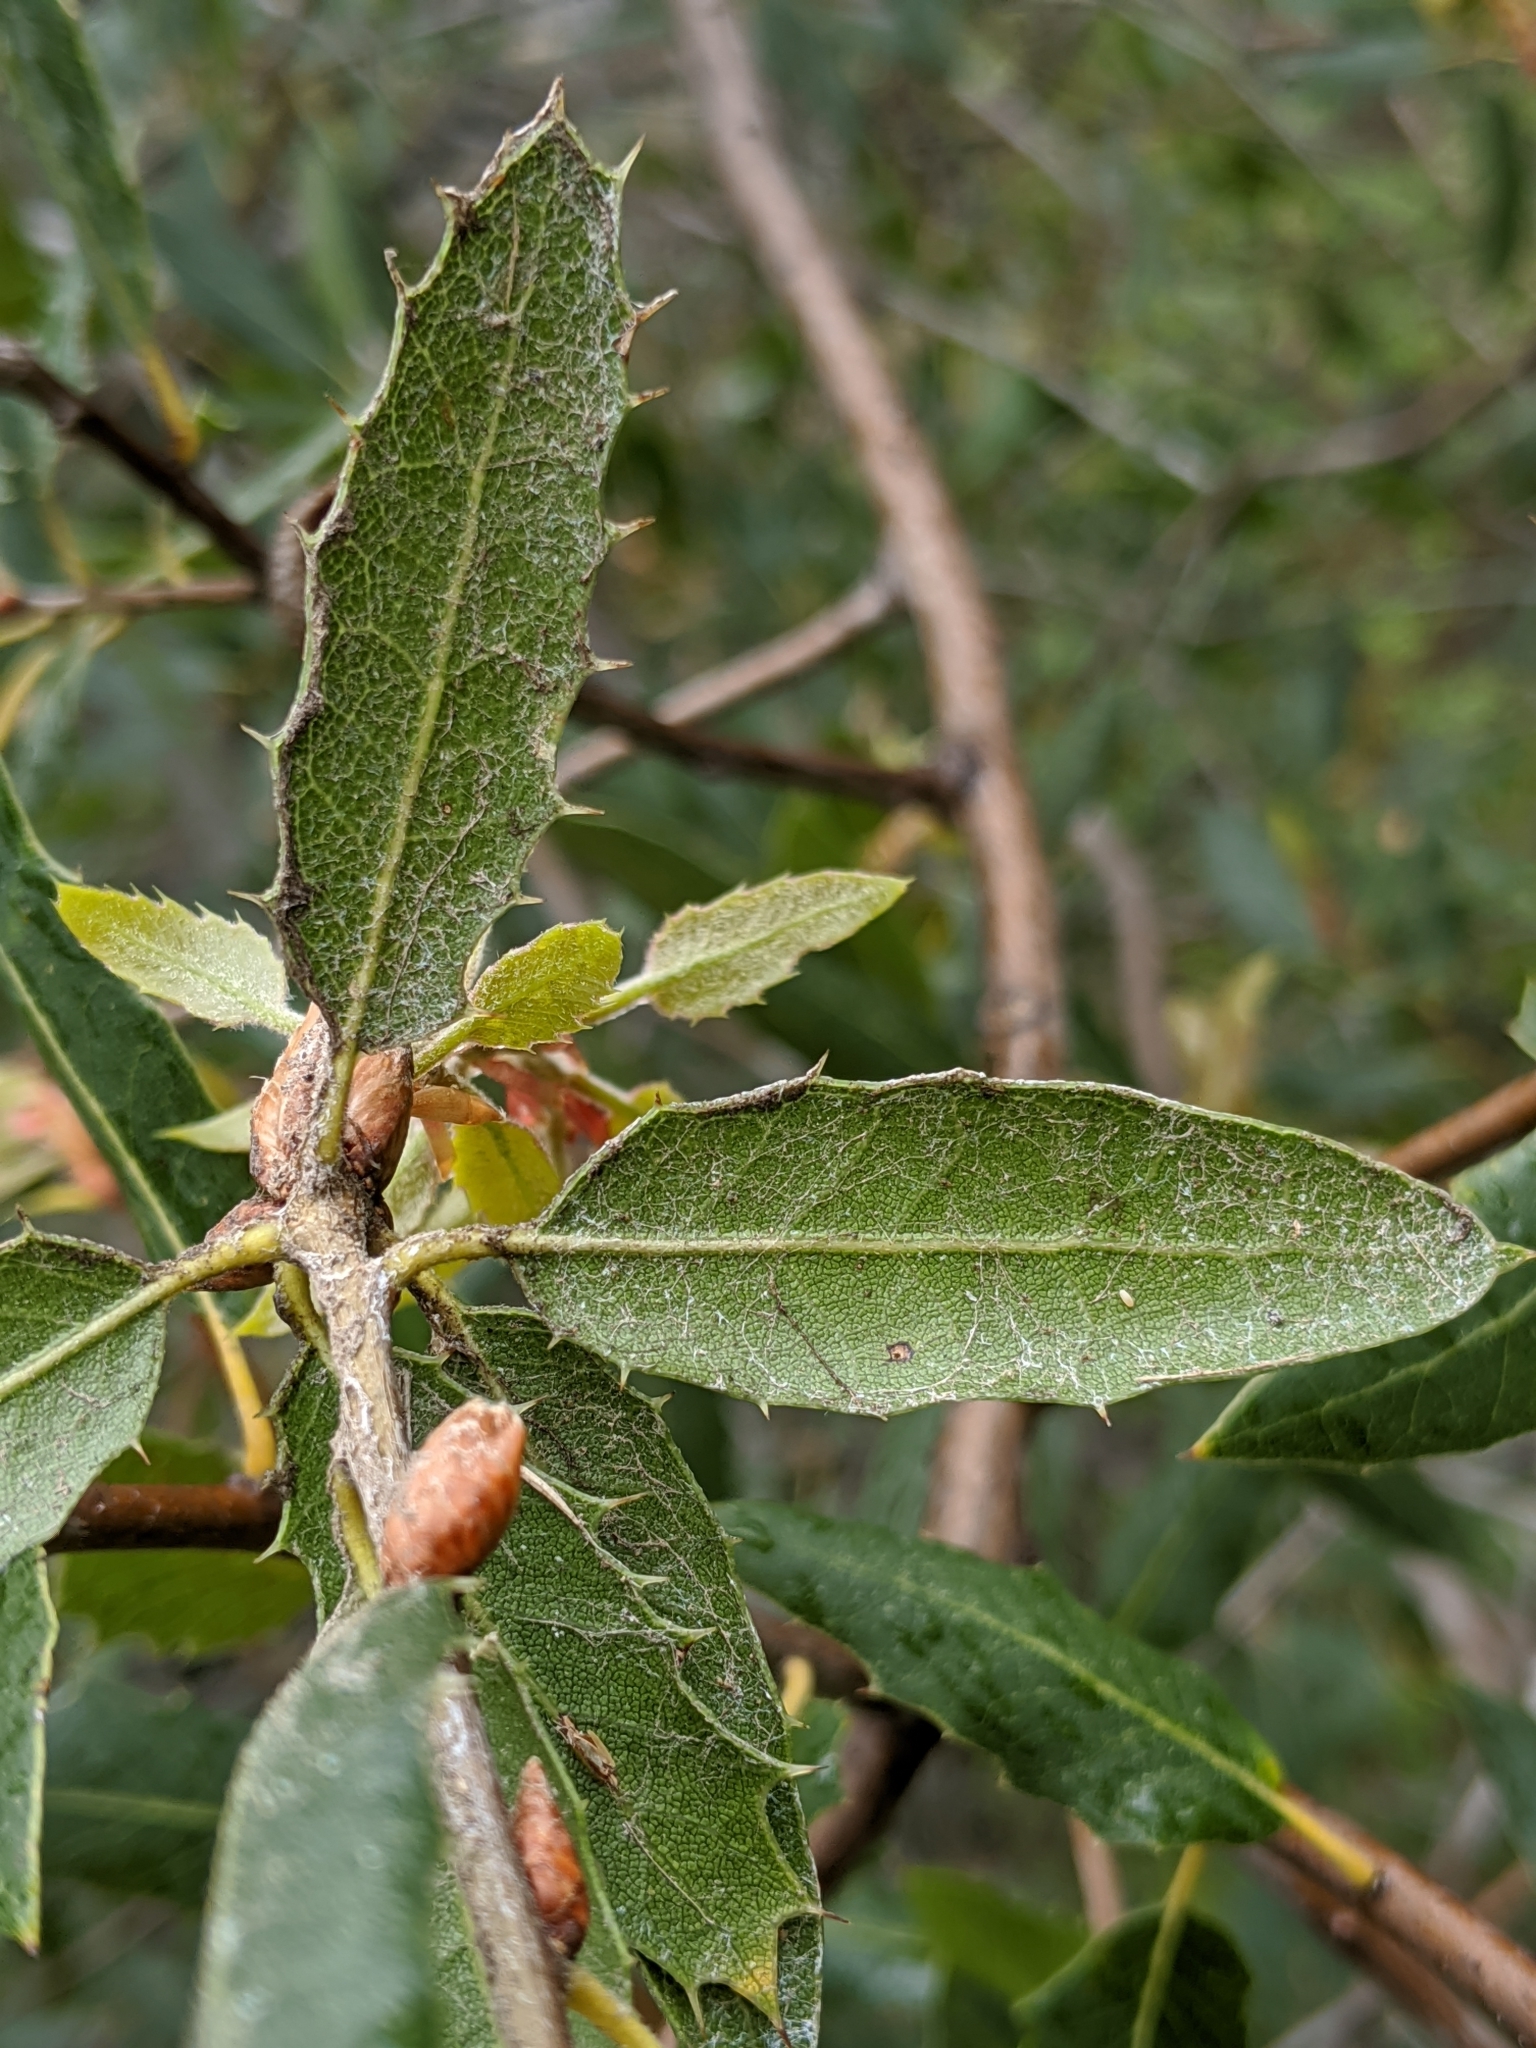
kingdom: Plantae
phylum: Tracheophyta
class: Magnoliopsida
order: Fagales
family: Fagaceae
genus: Quercus
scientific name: Quercus wislizeni
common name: Interior live oak
